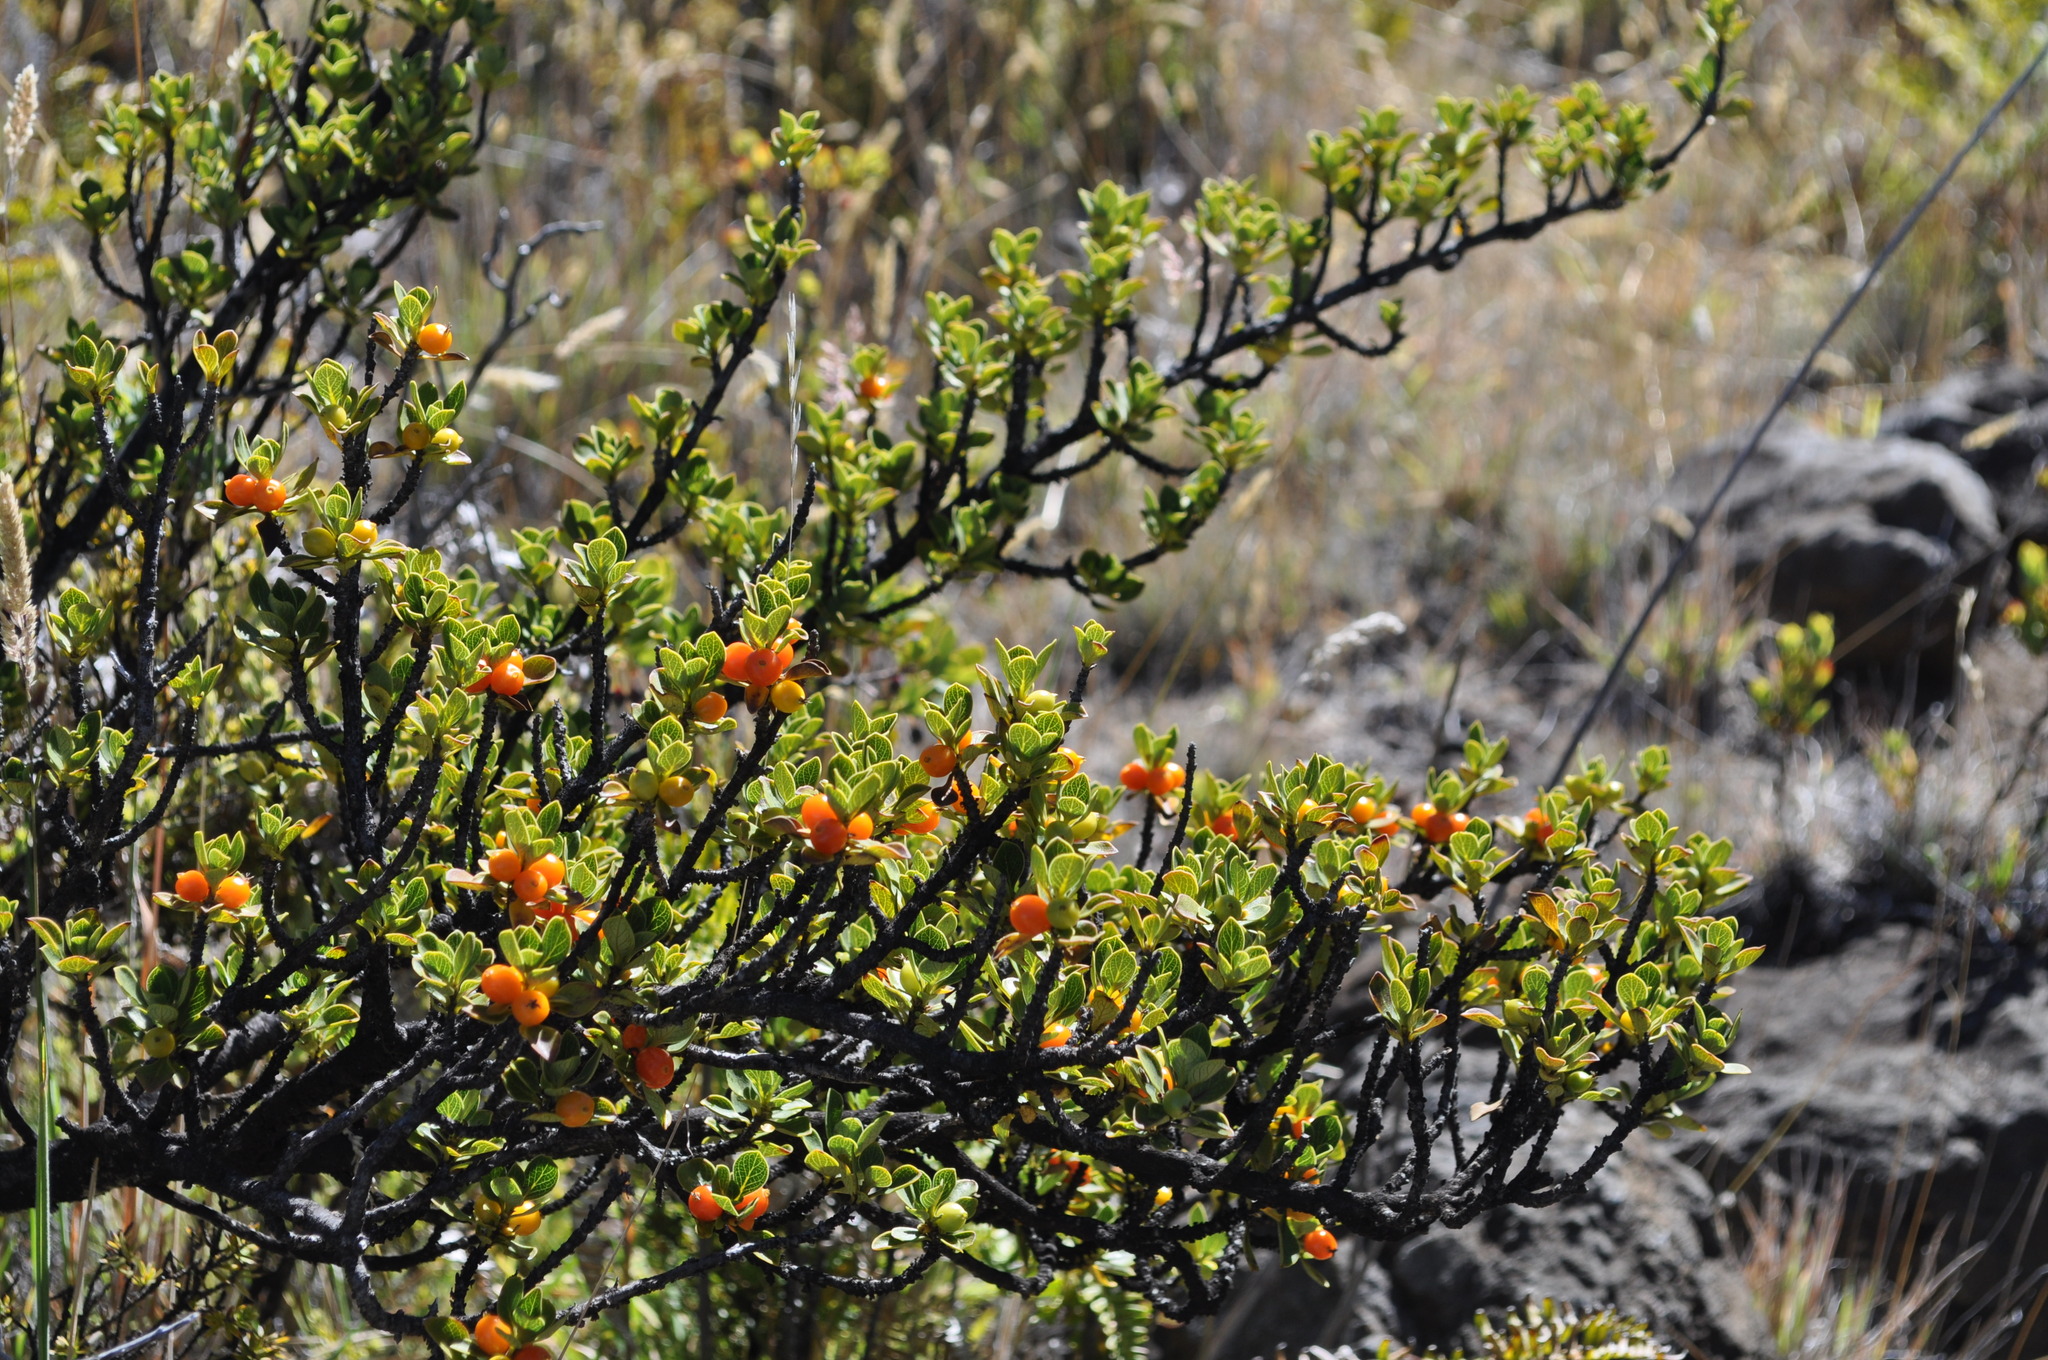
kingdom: Plantae
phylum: Tracheophyta
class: Magnoliopsida
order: Gentianales
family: Rubiaceae
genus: Coprosma
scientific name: Coprosma montana
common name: Alpine mirror plant
